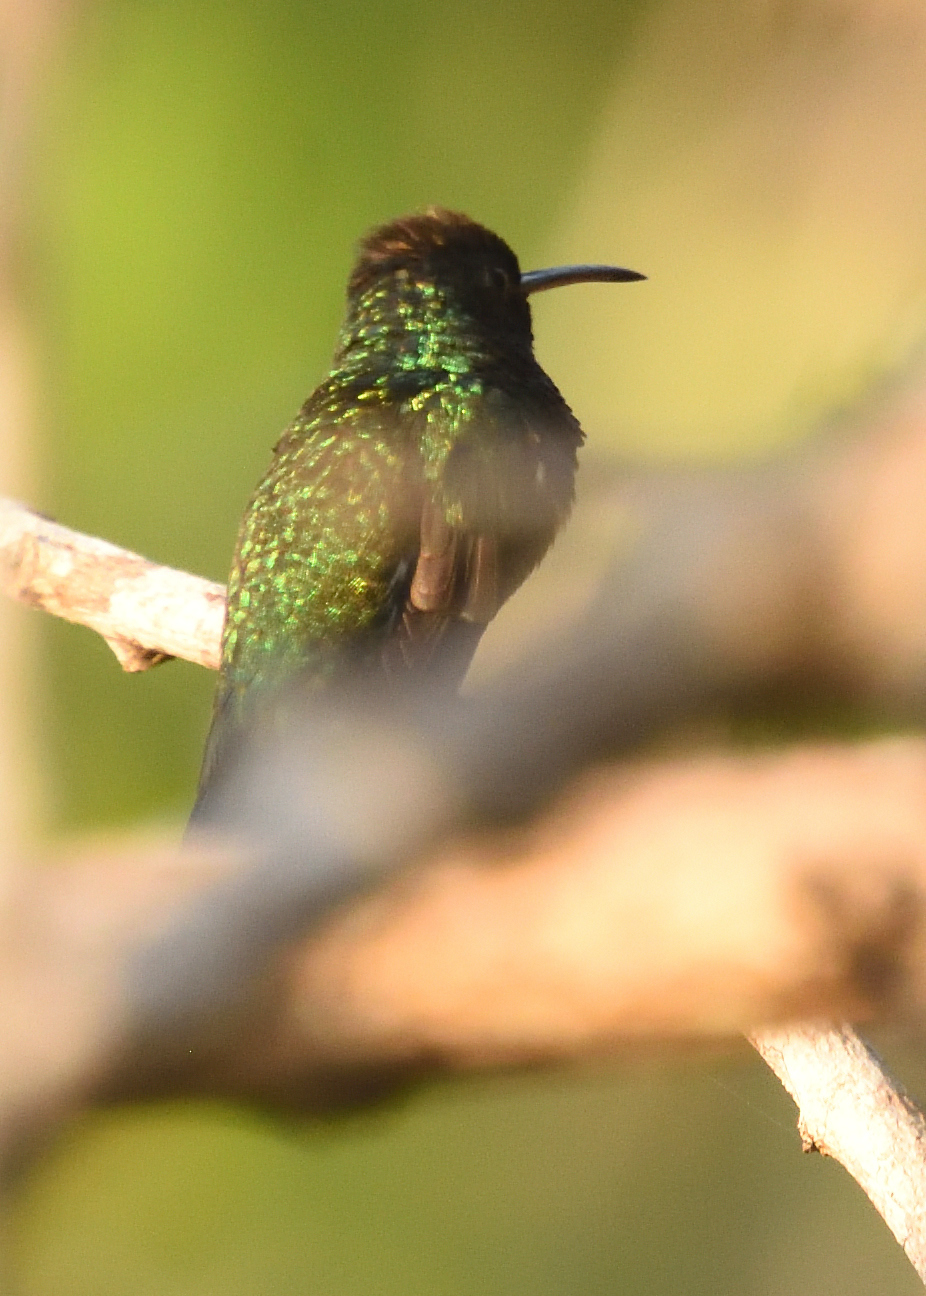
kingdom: Animalia
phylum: Chordata
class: Aves
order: Apodiformes
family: Trochilidae
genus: Chrysuronia
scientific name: Chrysuronia lilliae
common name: Sapphire-bellied hummingbird
